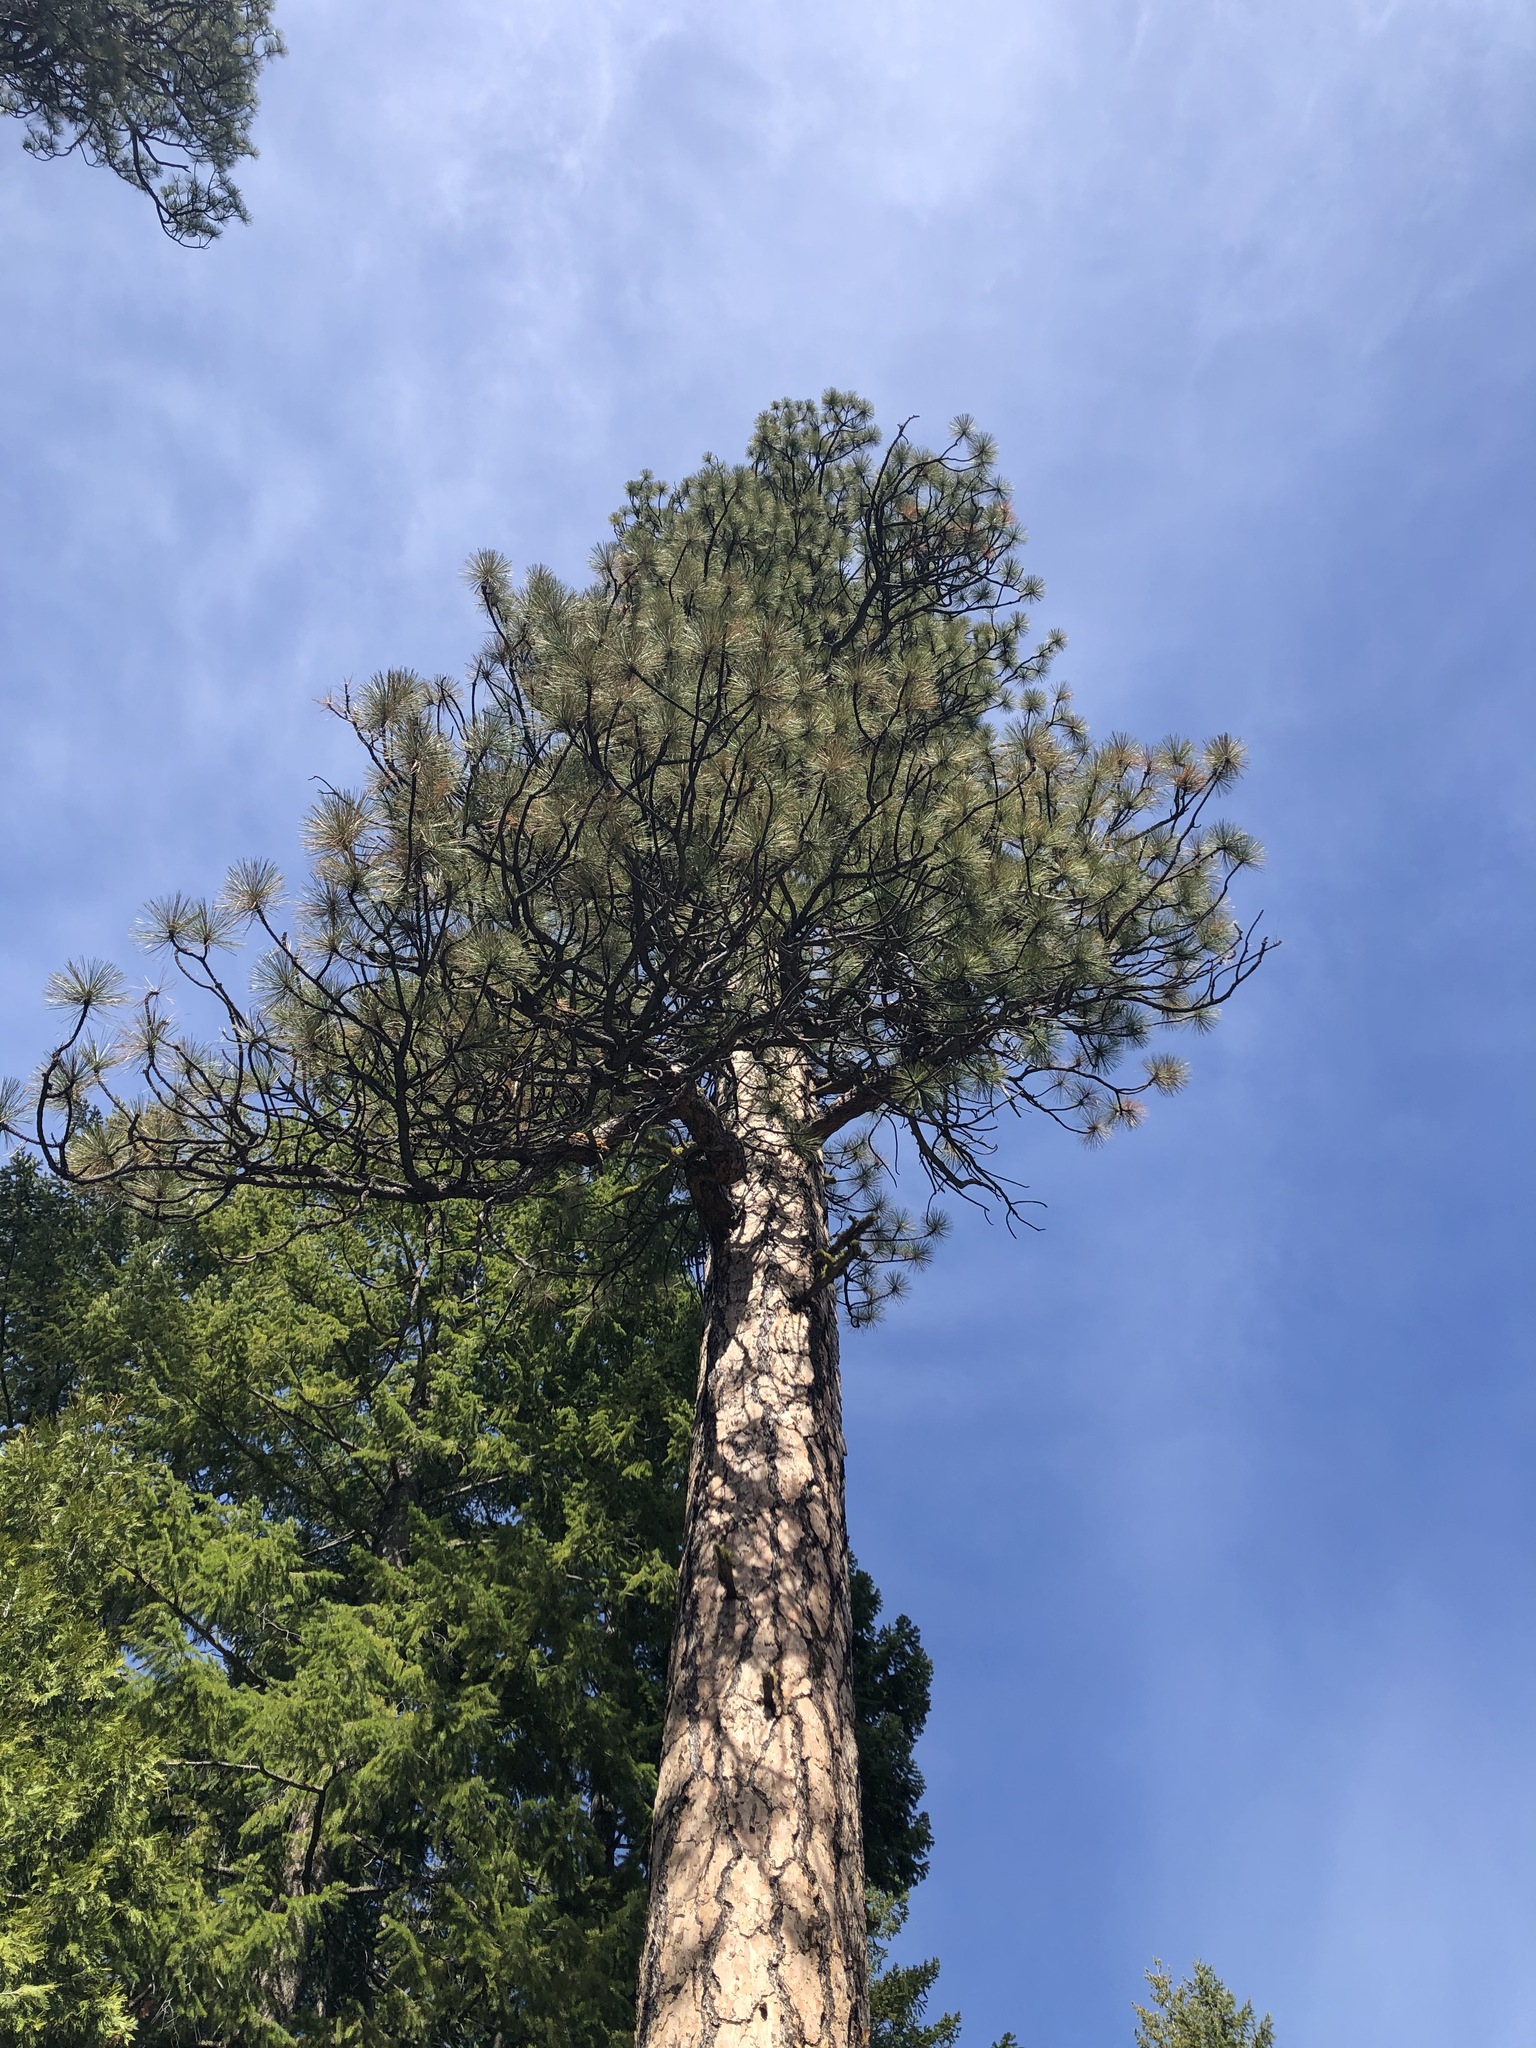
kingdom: Plantae
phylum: Tracheophyta
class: Pinopsida
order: Pinales
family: Pinaceae
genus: Pinus
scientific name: Pinus ponderosa
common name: Western yellow-pine
